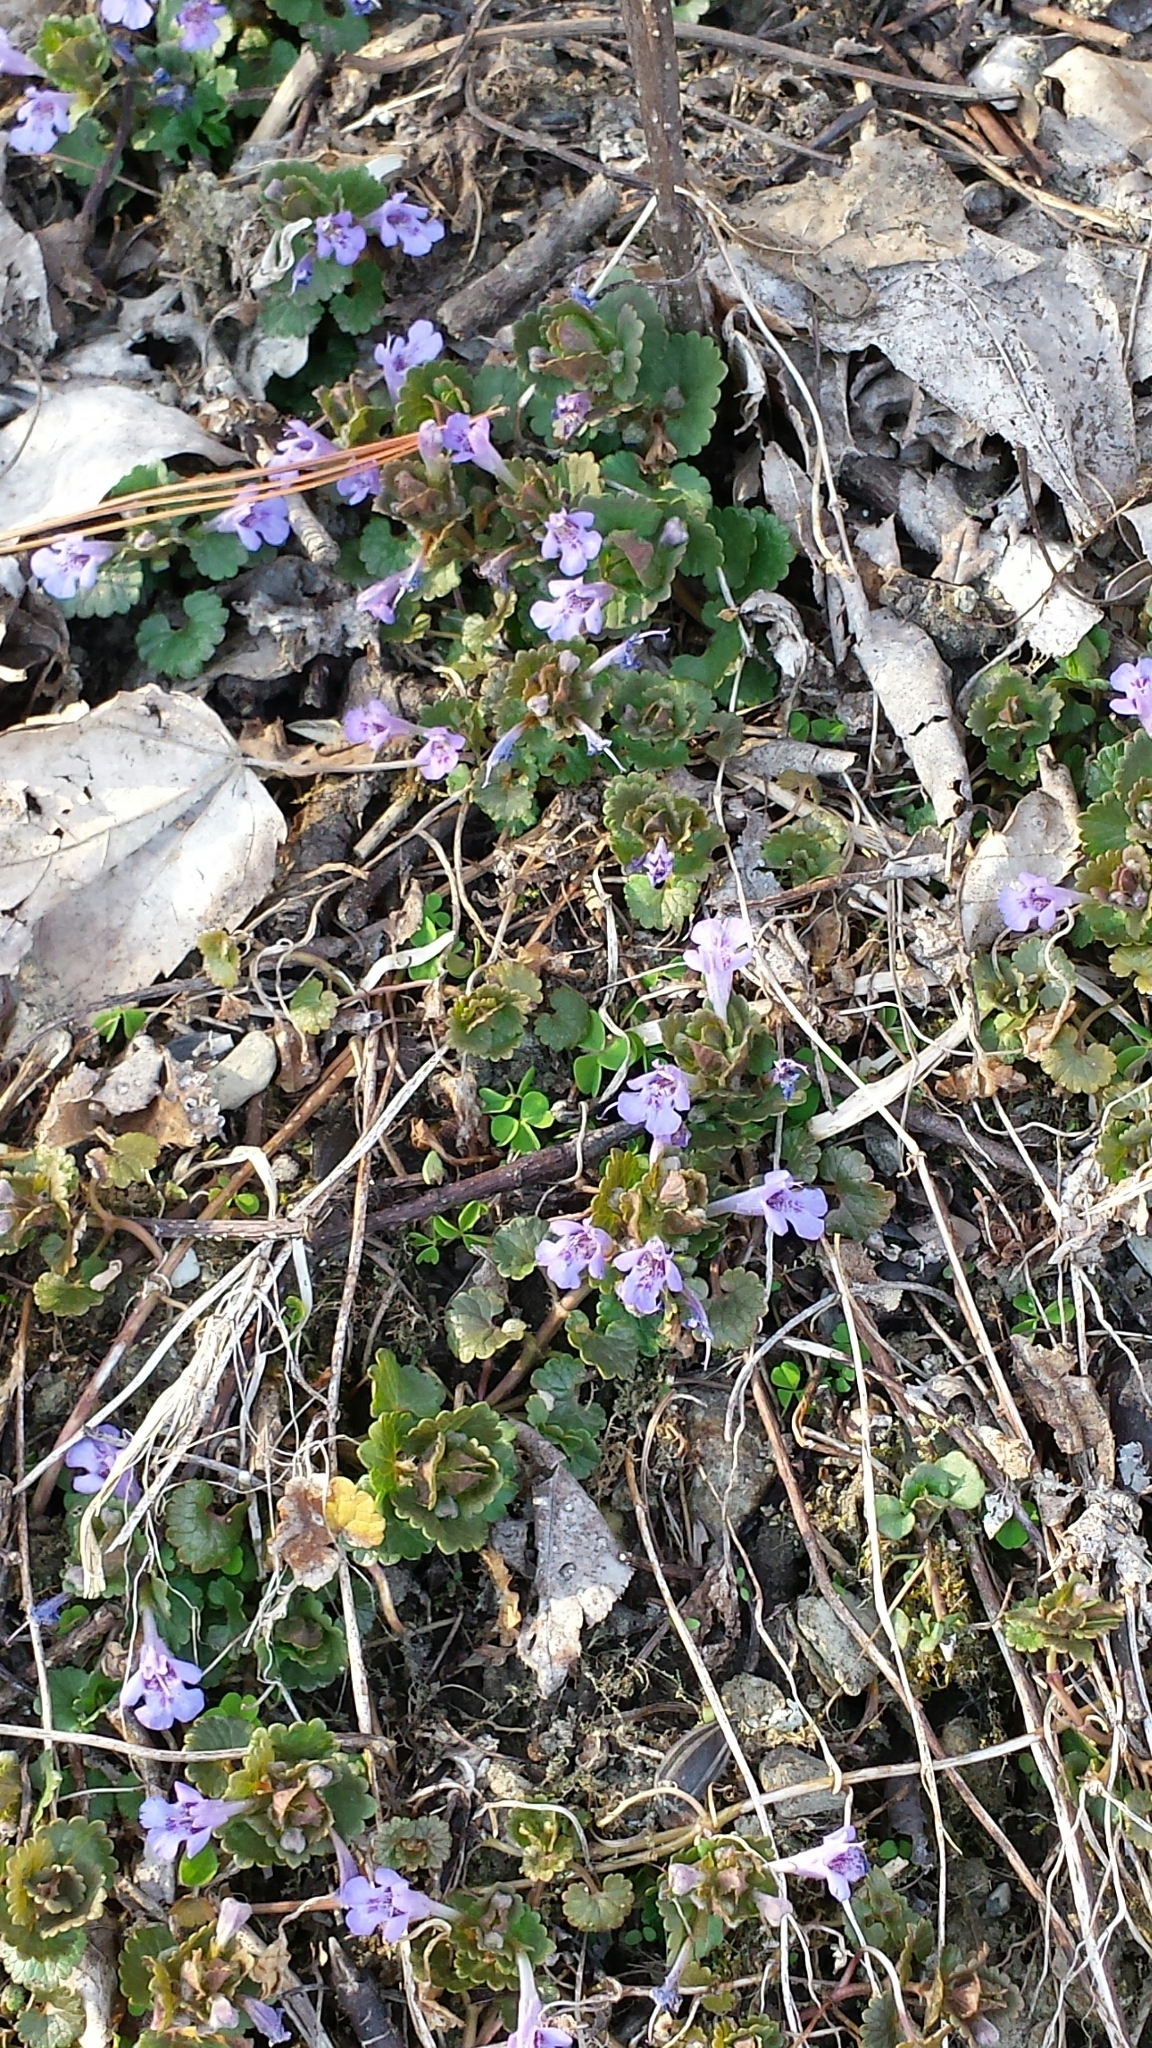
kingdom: Plantae
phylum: Tracheophyta
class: Magnoliopsida
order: Lamiales
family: Lamiaceae
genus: Glechoma
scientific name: Glechoma hederacea
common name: Ground ivy
